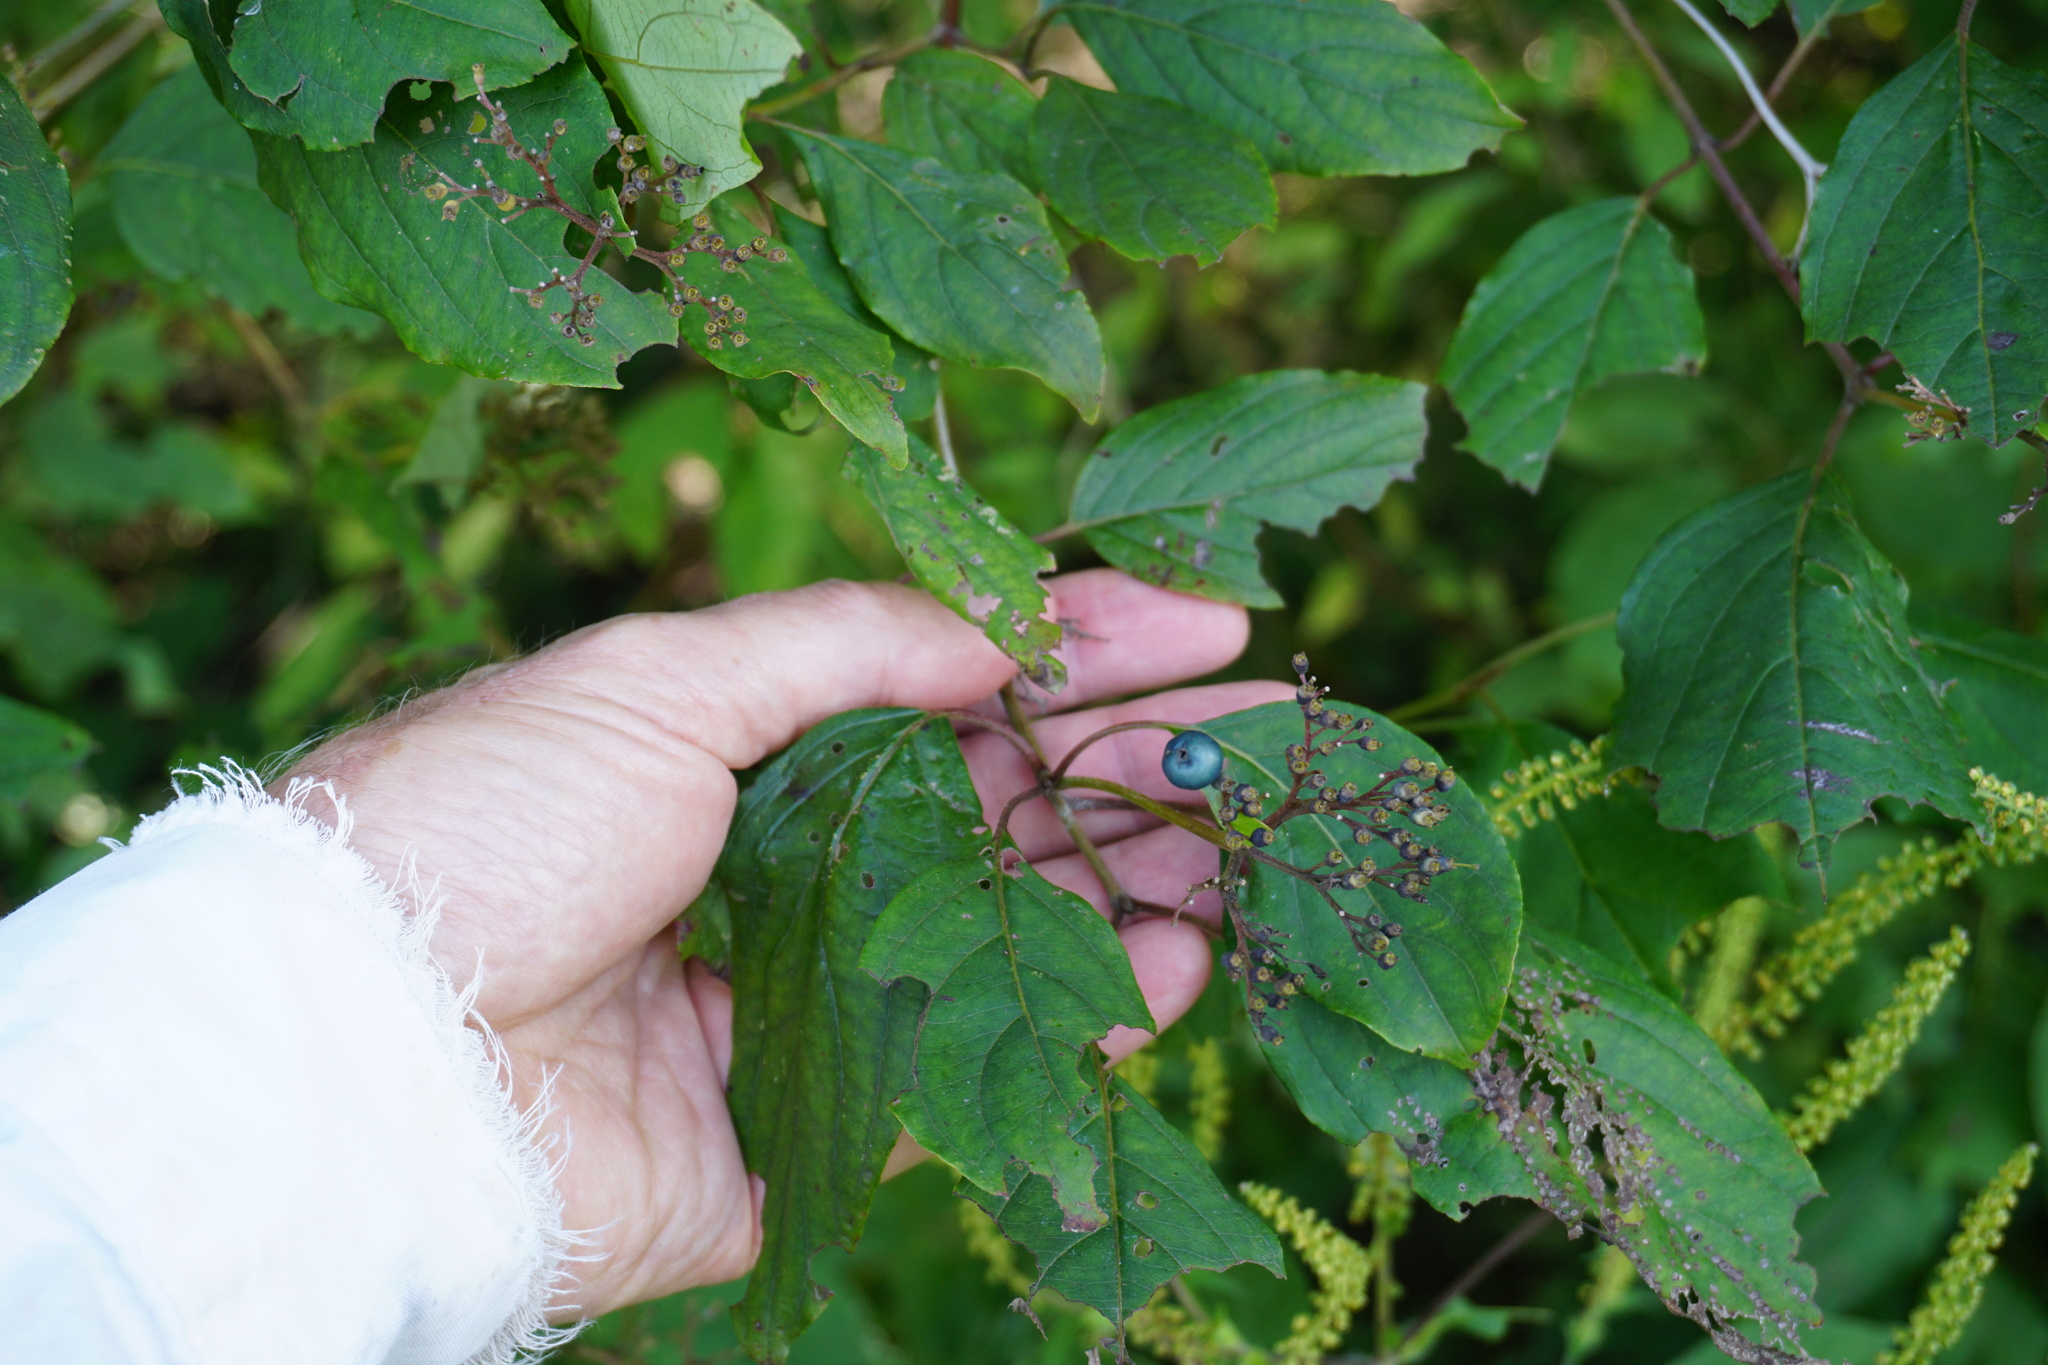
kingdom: Plantae
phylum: Tracheophyta
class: Magnoliopsida
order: Cornales
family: Cornaceae
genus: Cornus
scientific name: Cornus amomum
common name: Silky dogwood
